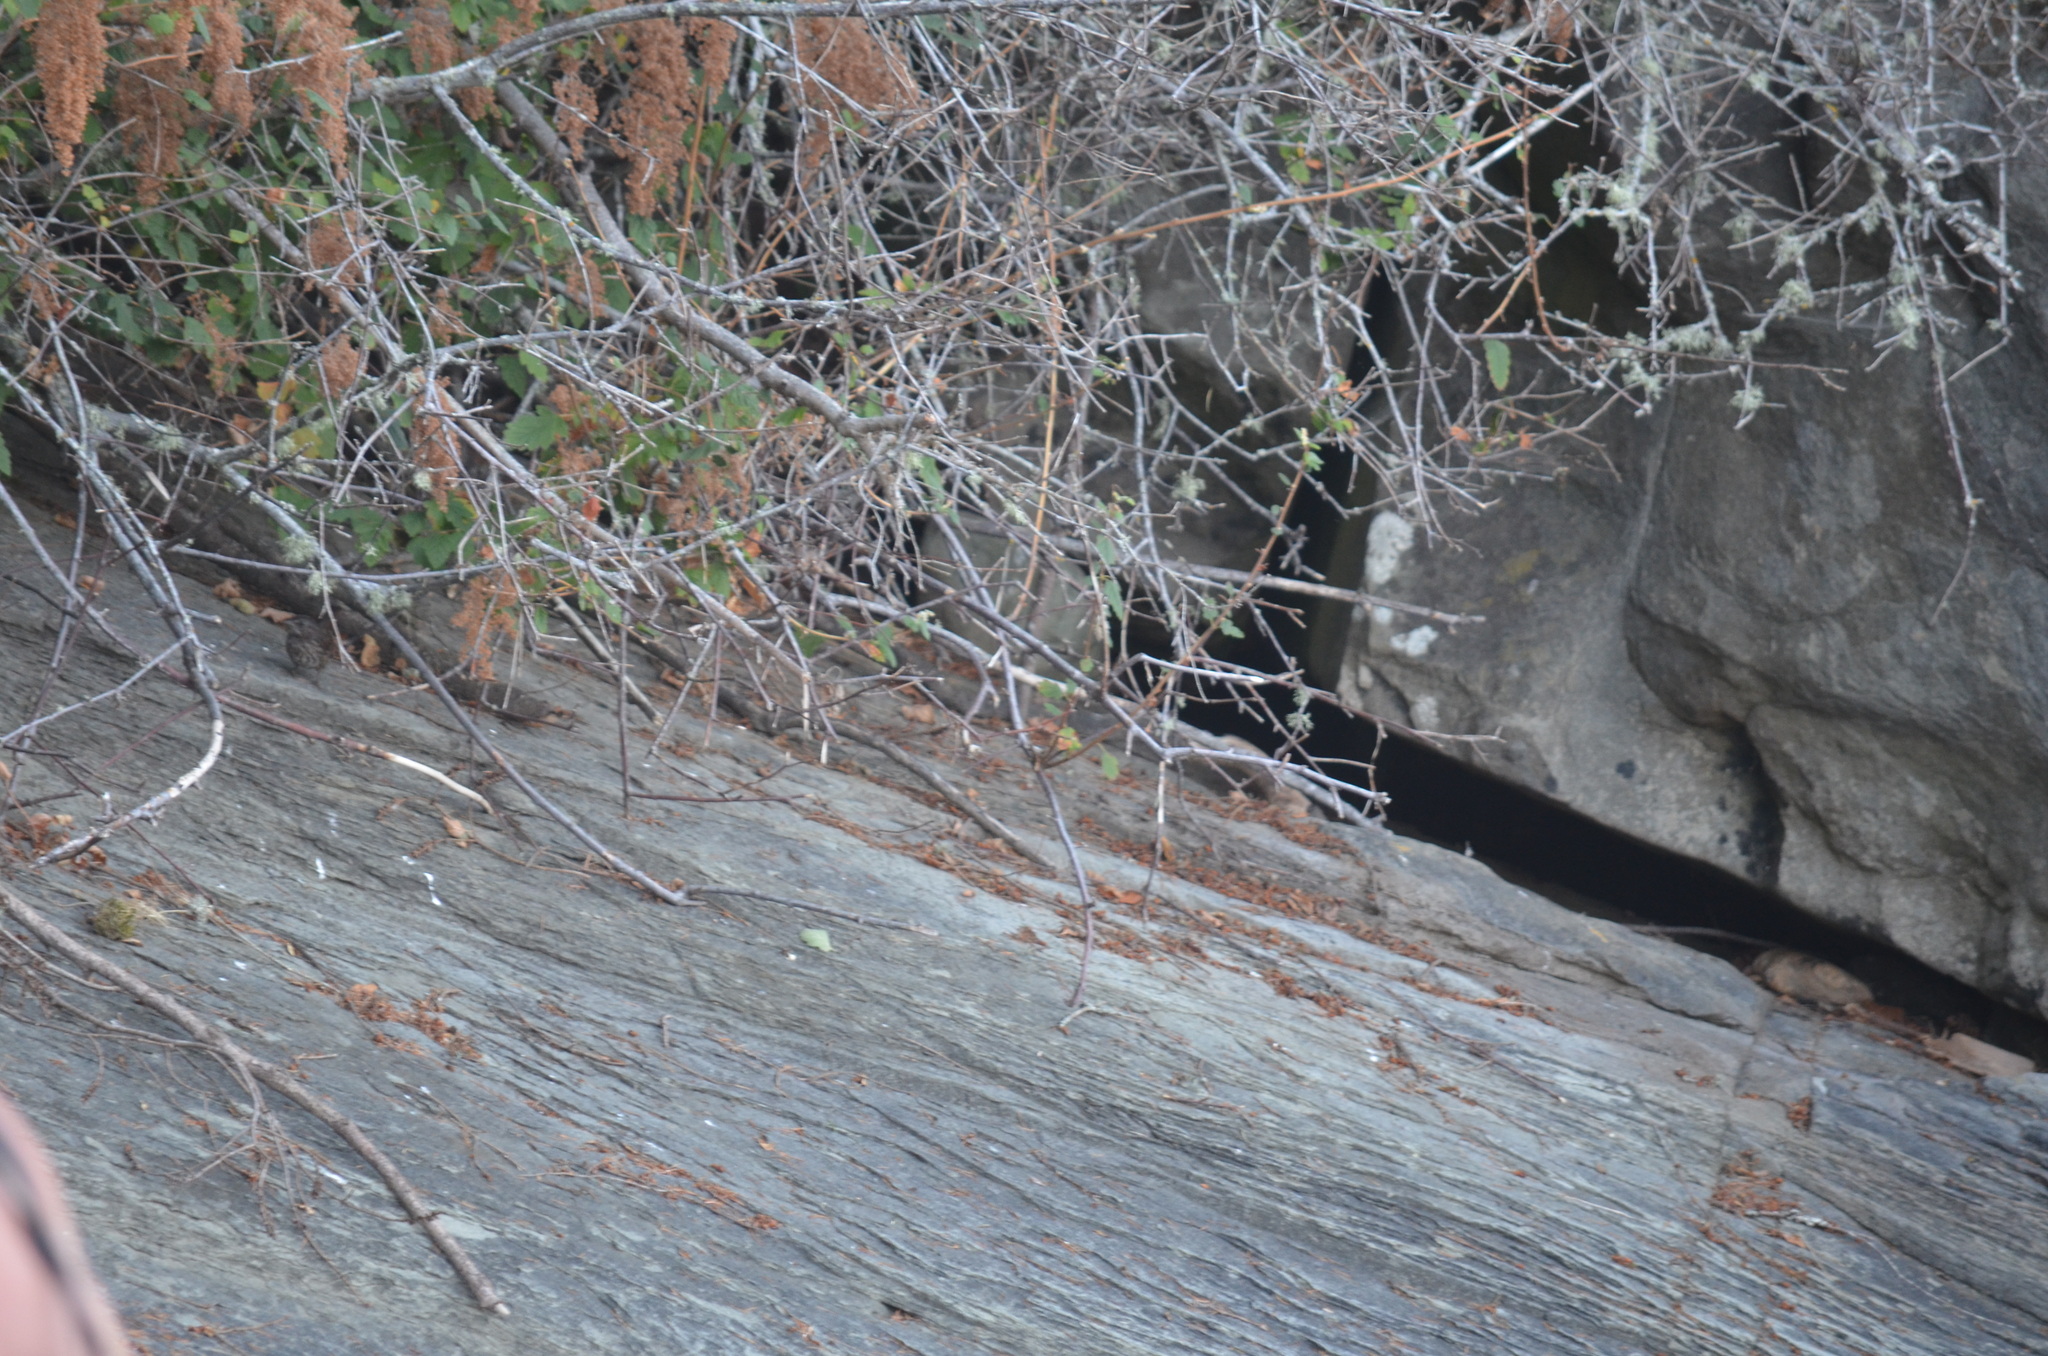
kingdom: Animalia
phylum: Chordata
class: Aves
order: Passeriformes
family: Passerellidae
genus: Melospiza
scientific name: Melospiza melodia
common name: Song sparrow
